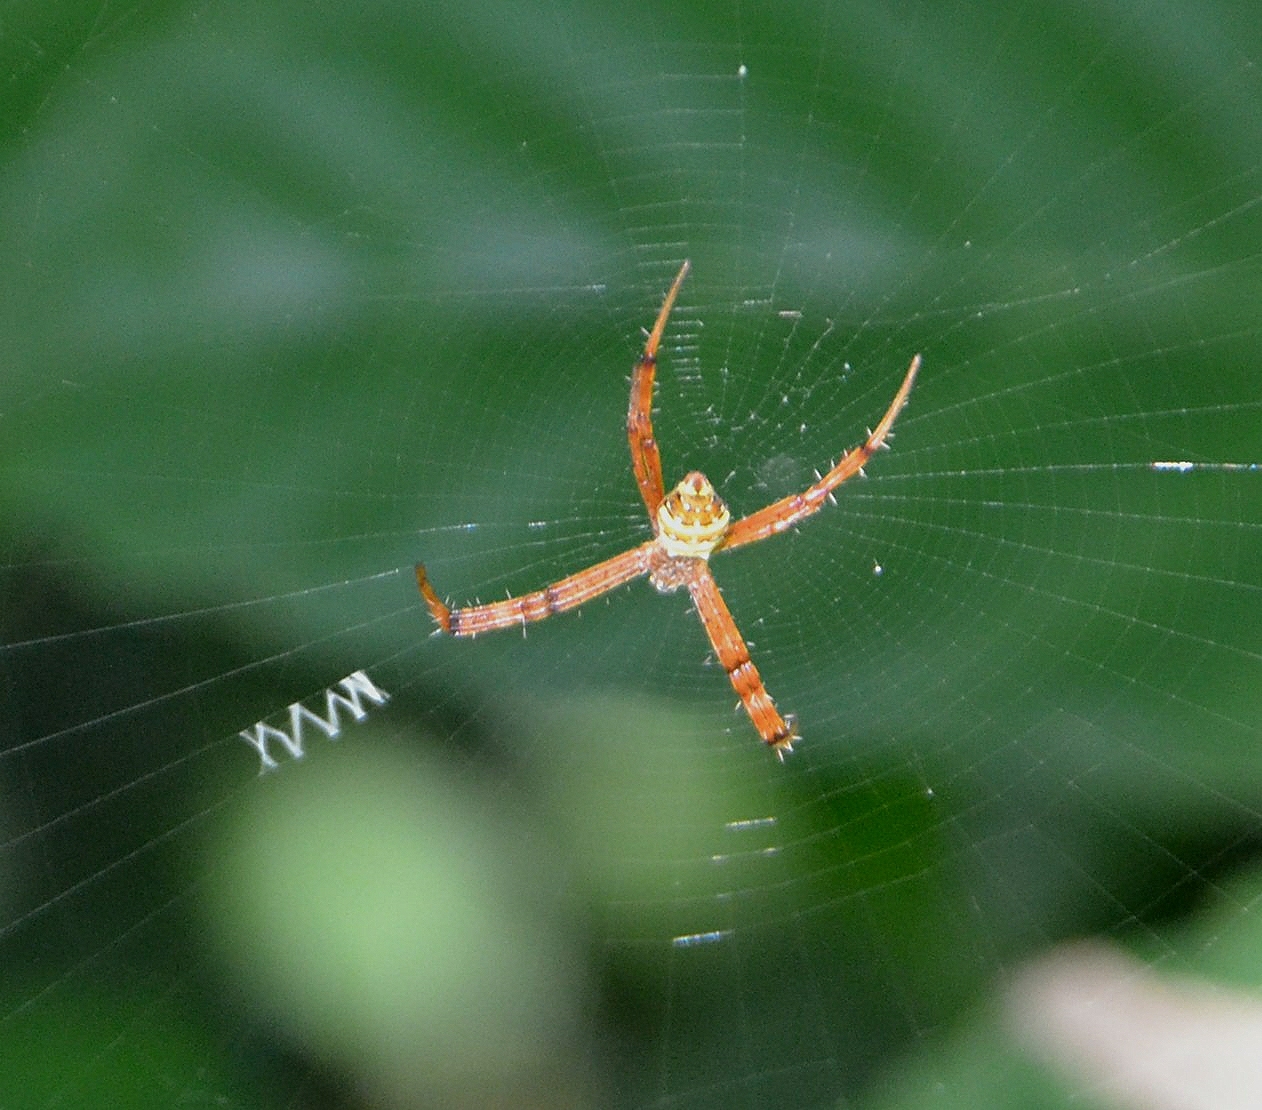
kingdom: Animalia
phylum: Arthropoda
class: Arachnida
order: Araneae
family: Araneidae
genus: Argiope
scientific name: Argiope pulchella
